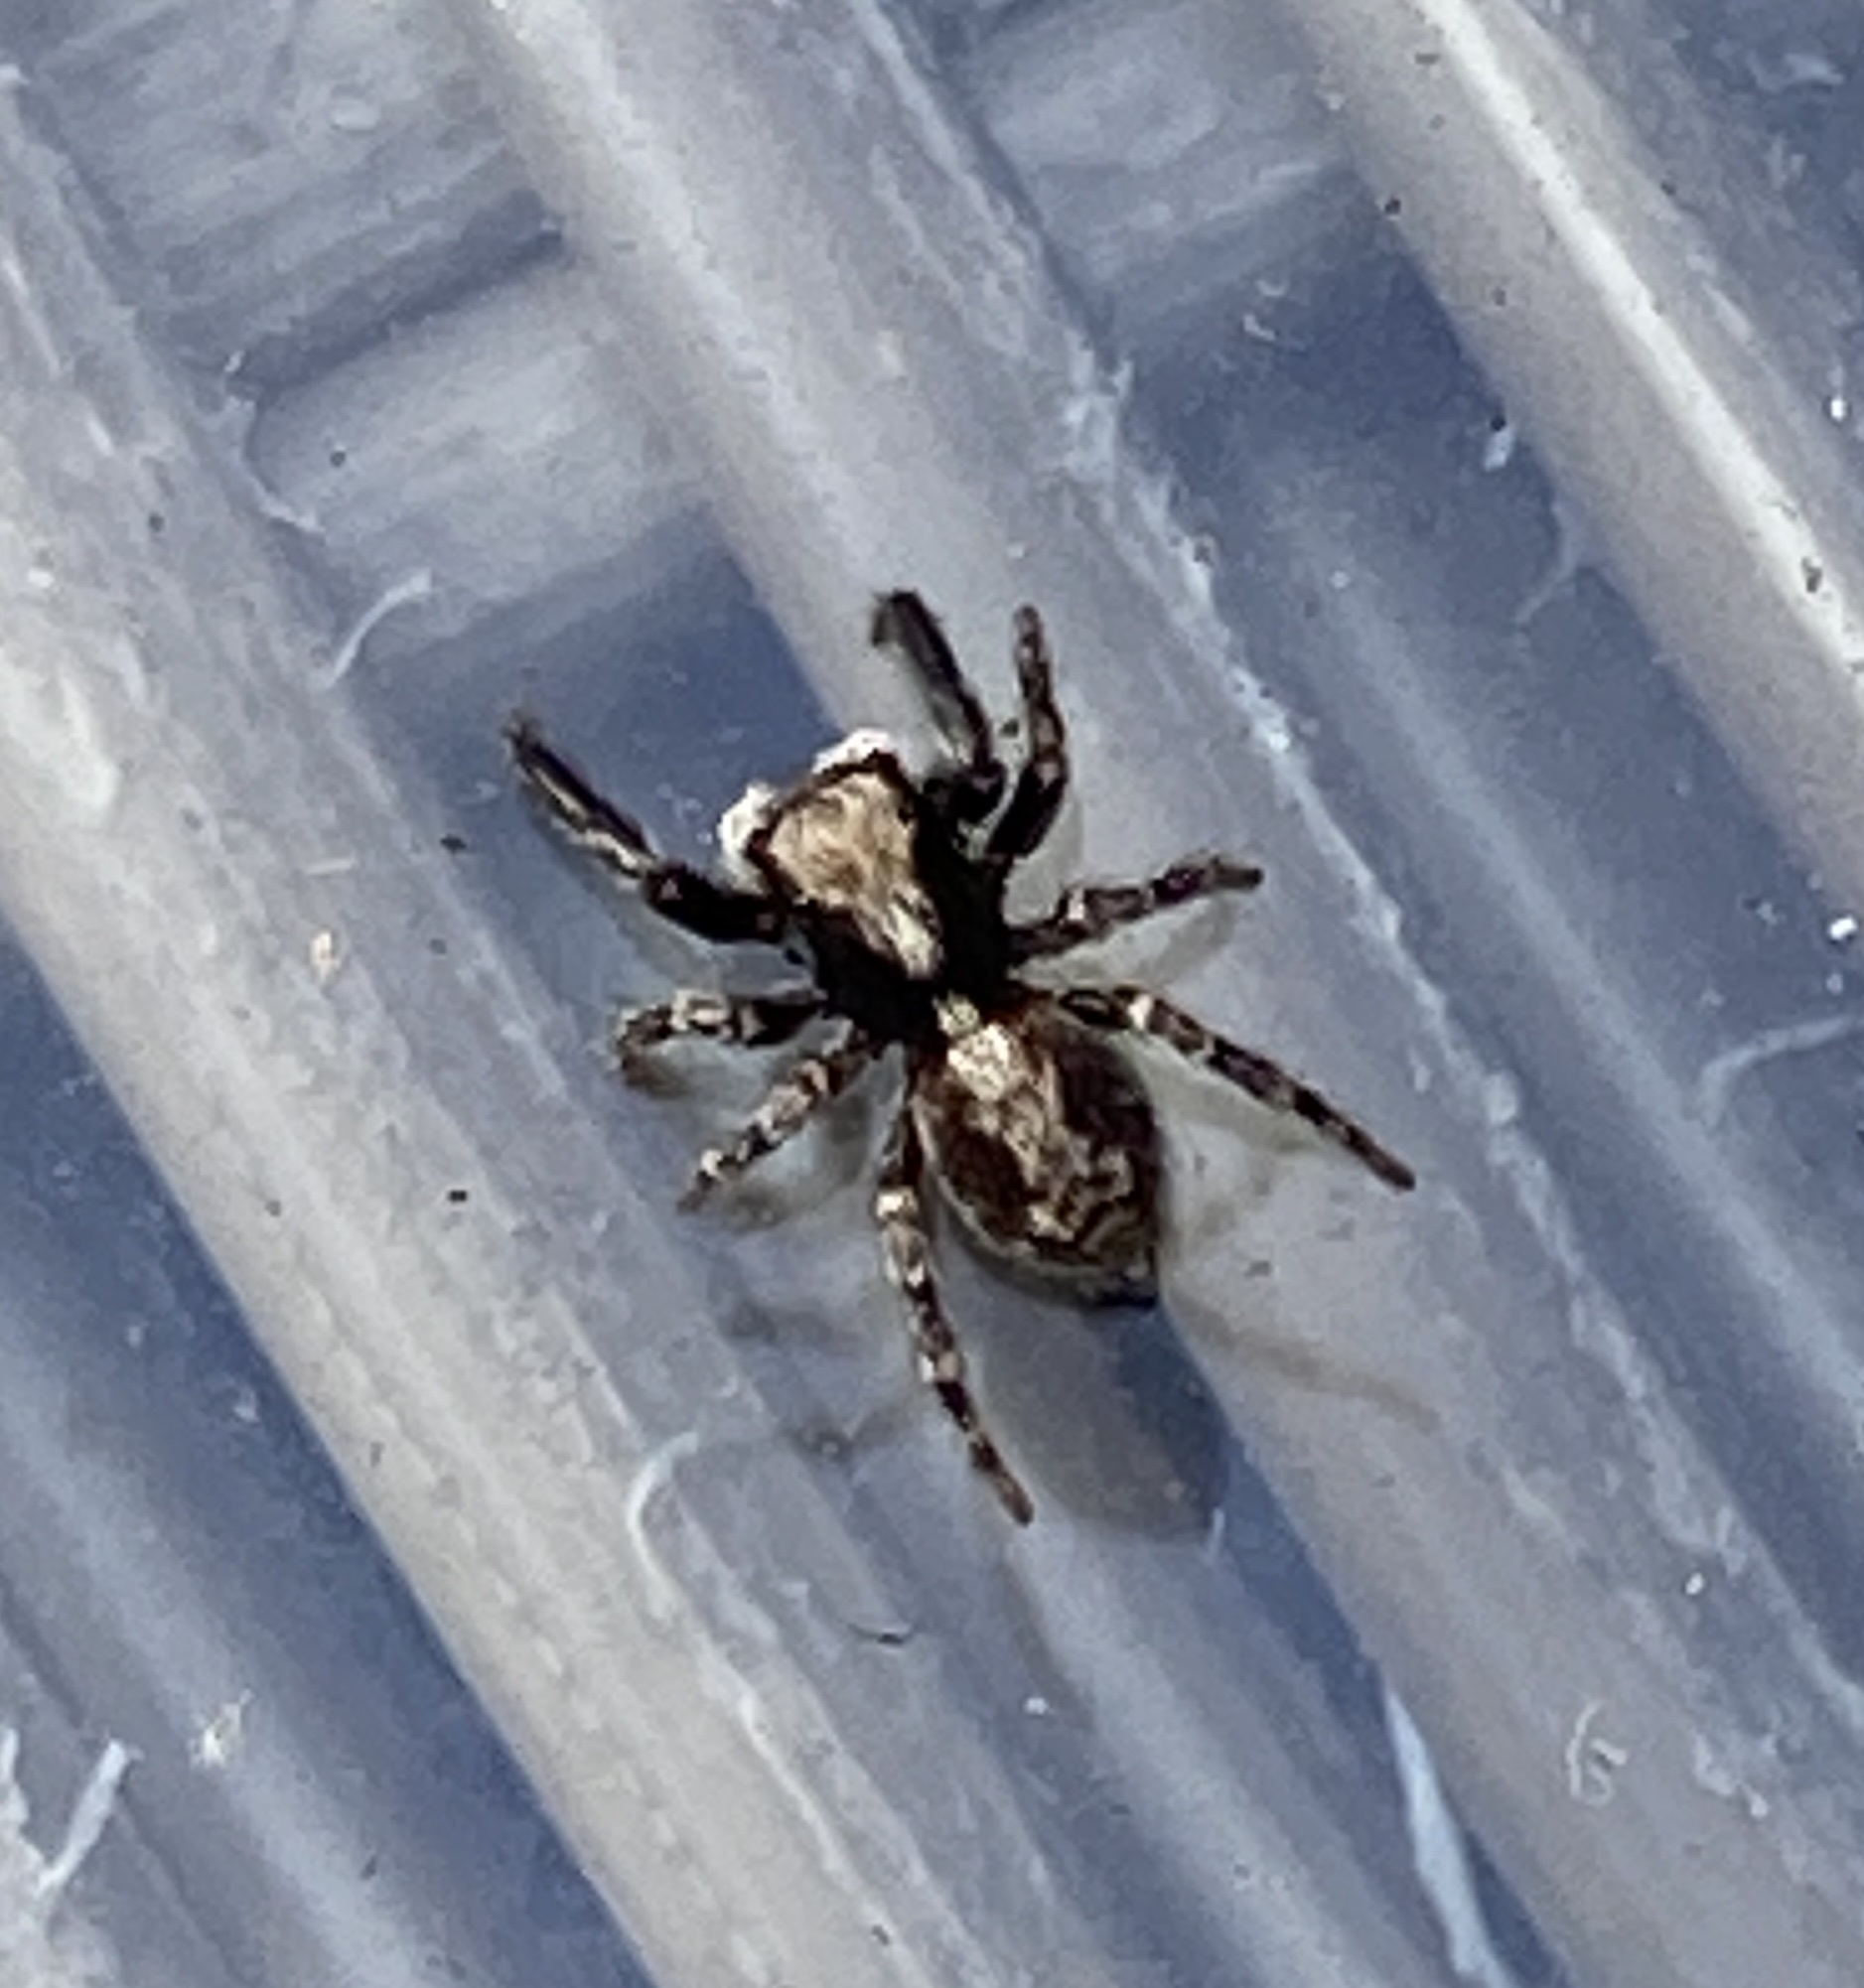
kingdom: Animalia
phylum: Arthropoda
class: Arachnida
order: Araneae
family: Salticidae
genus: Pseudeuophrys
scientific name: Pseudeuophrys lanigera
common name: Jumping spider
